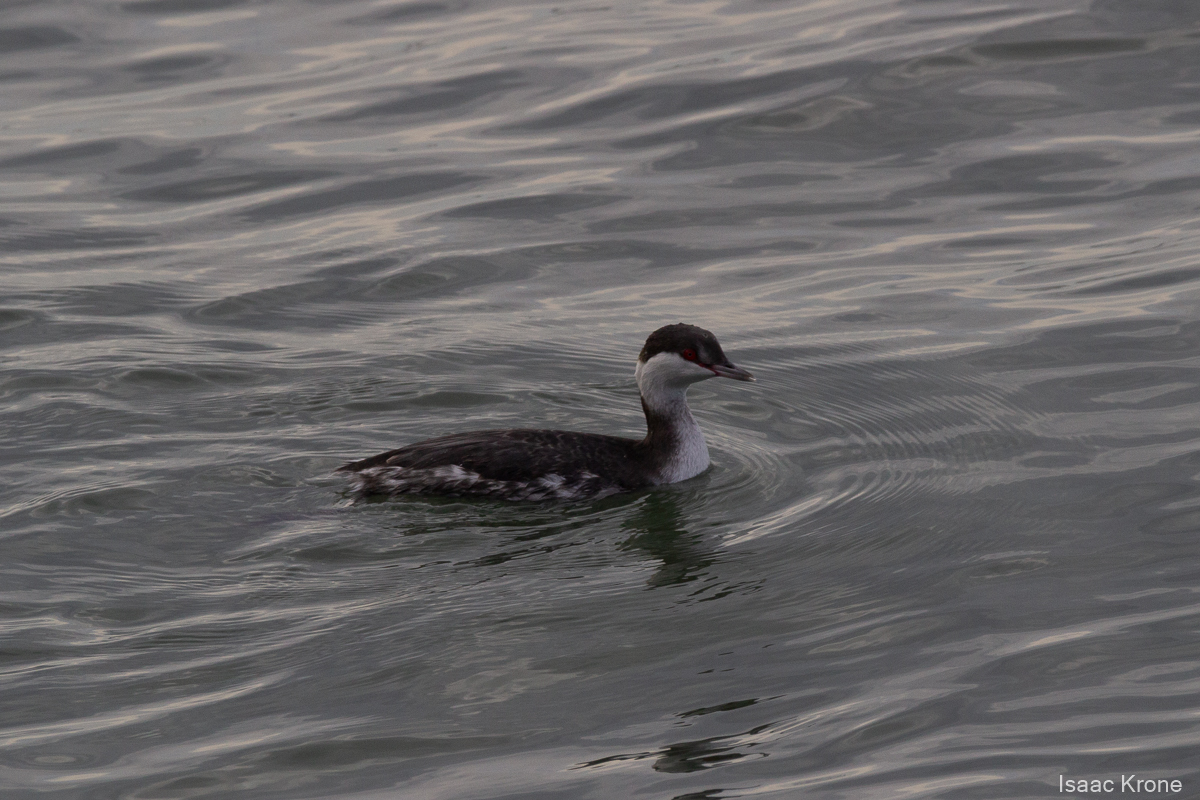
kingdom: Animalia
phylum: Chordata
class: Aves
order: Podicipediformes
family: Podicipedidae
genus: Podiceps
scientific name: Podiceps auritus
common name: Horned grebe
